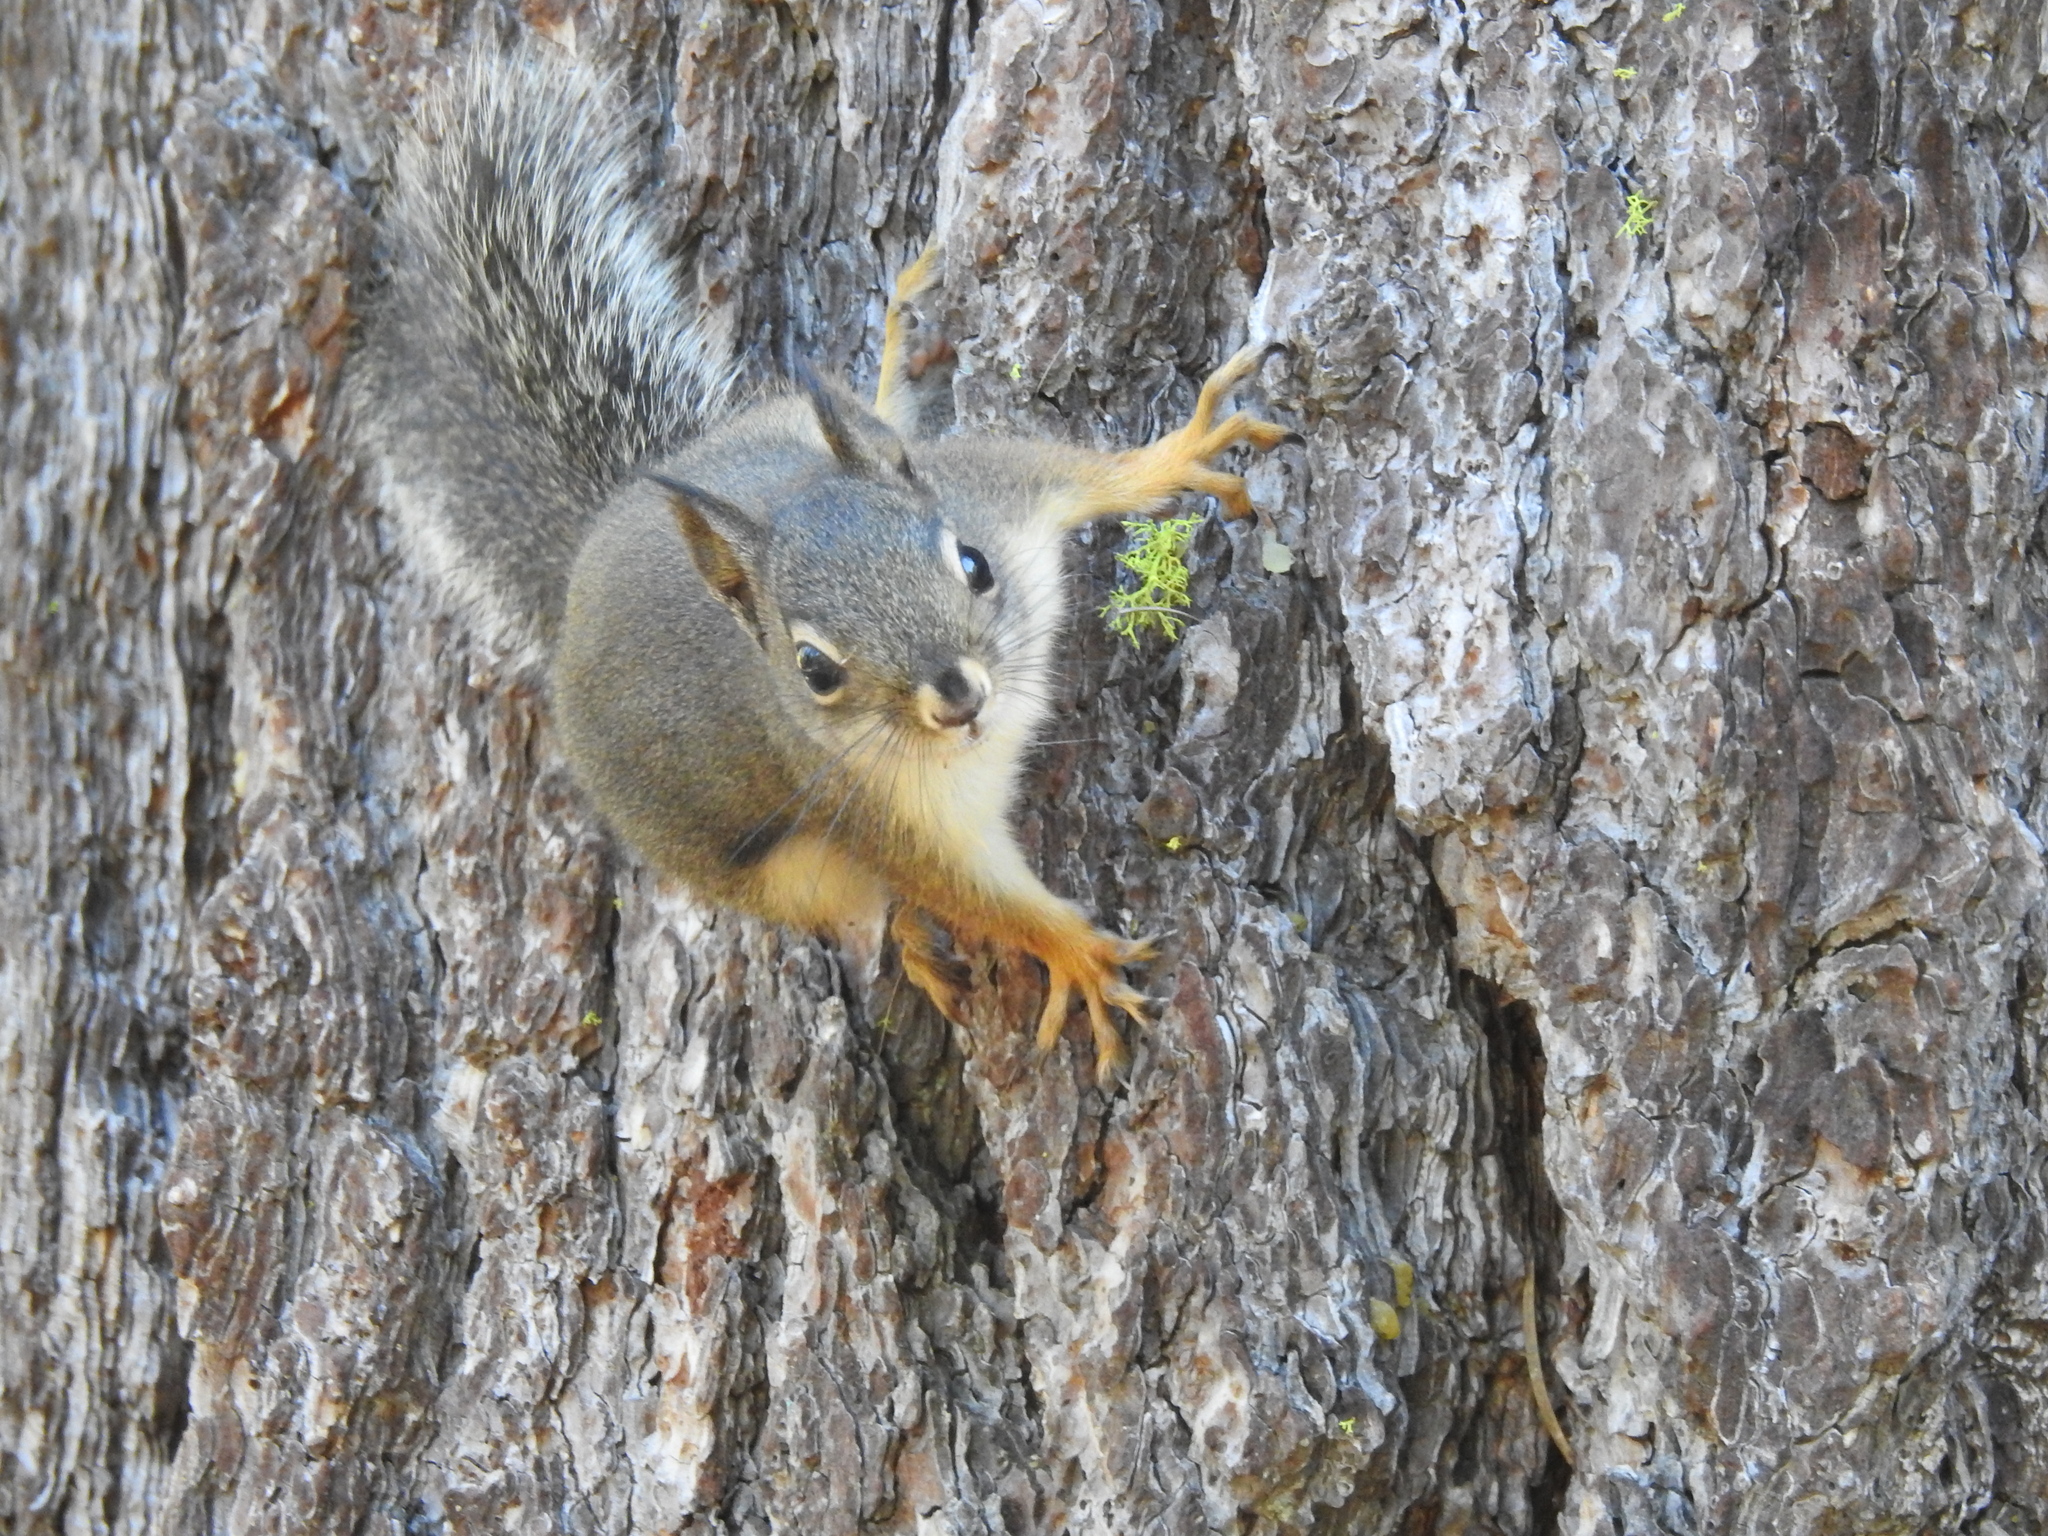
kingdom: Animalia
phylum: Chordata
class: Mammalia
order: Rodentia
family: Sciuridae
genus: Tamiasciurus
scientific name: Tamiasciurus douglasii
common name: Douglas's squirrel
